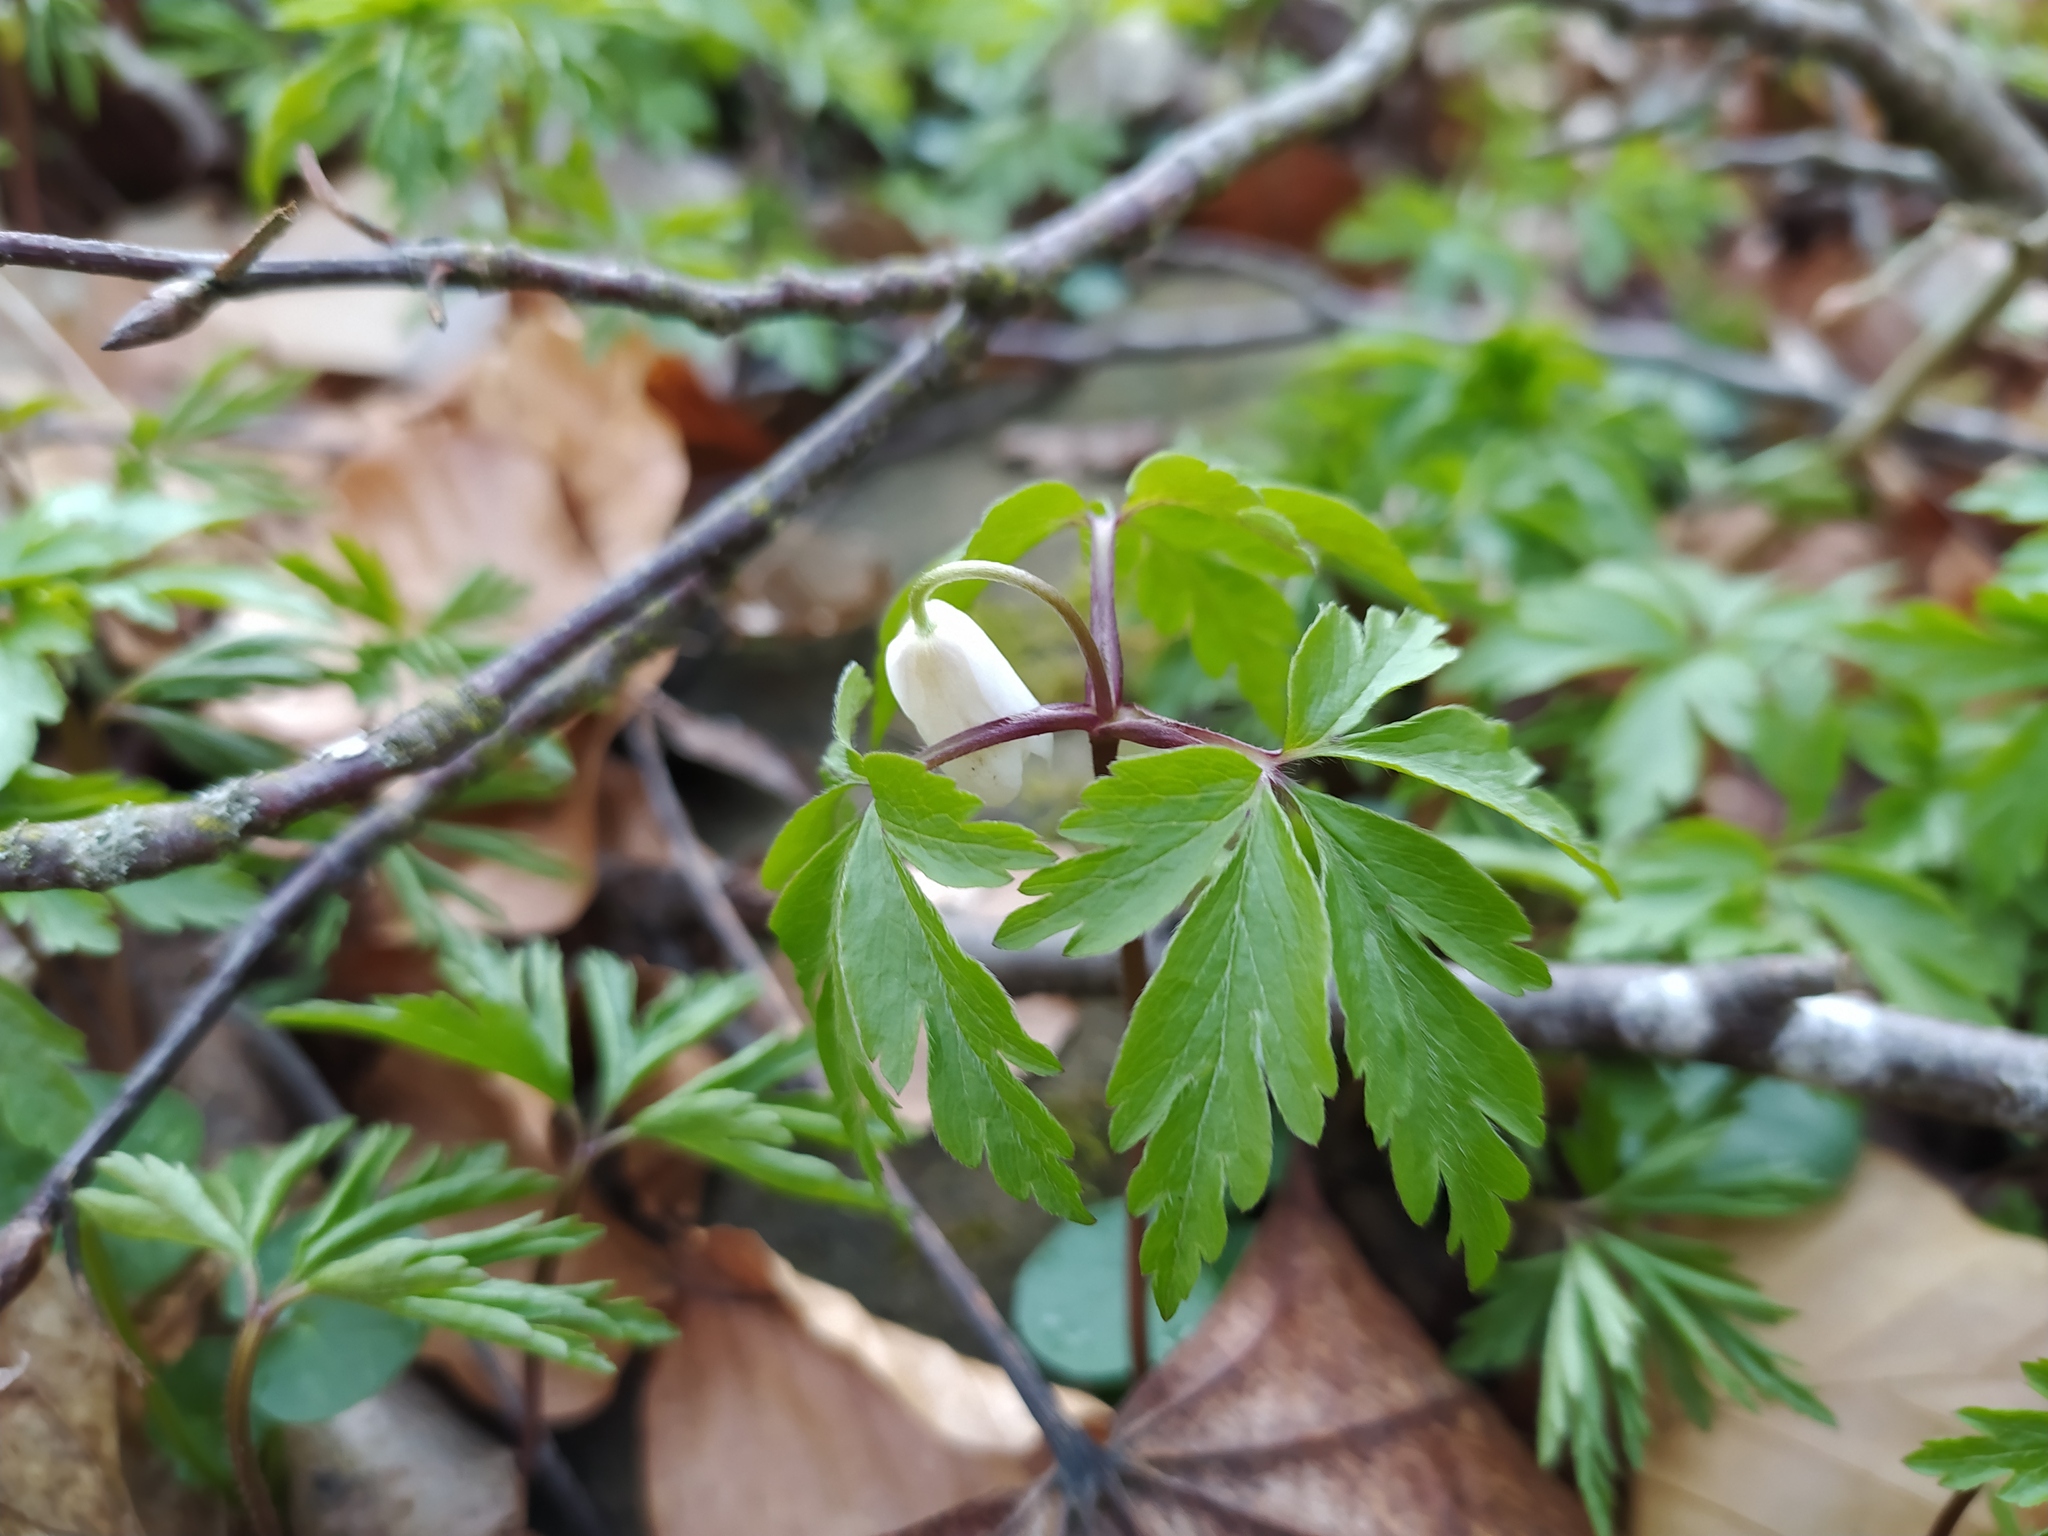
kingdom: Plantae
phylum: Tracheophyta
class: Magnoliopsida
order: Ranunculales
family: Ranunculaceae
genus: Anemone
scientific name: Anemone nemorosa
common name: Wood anemone
